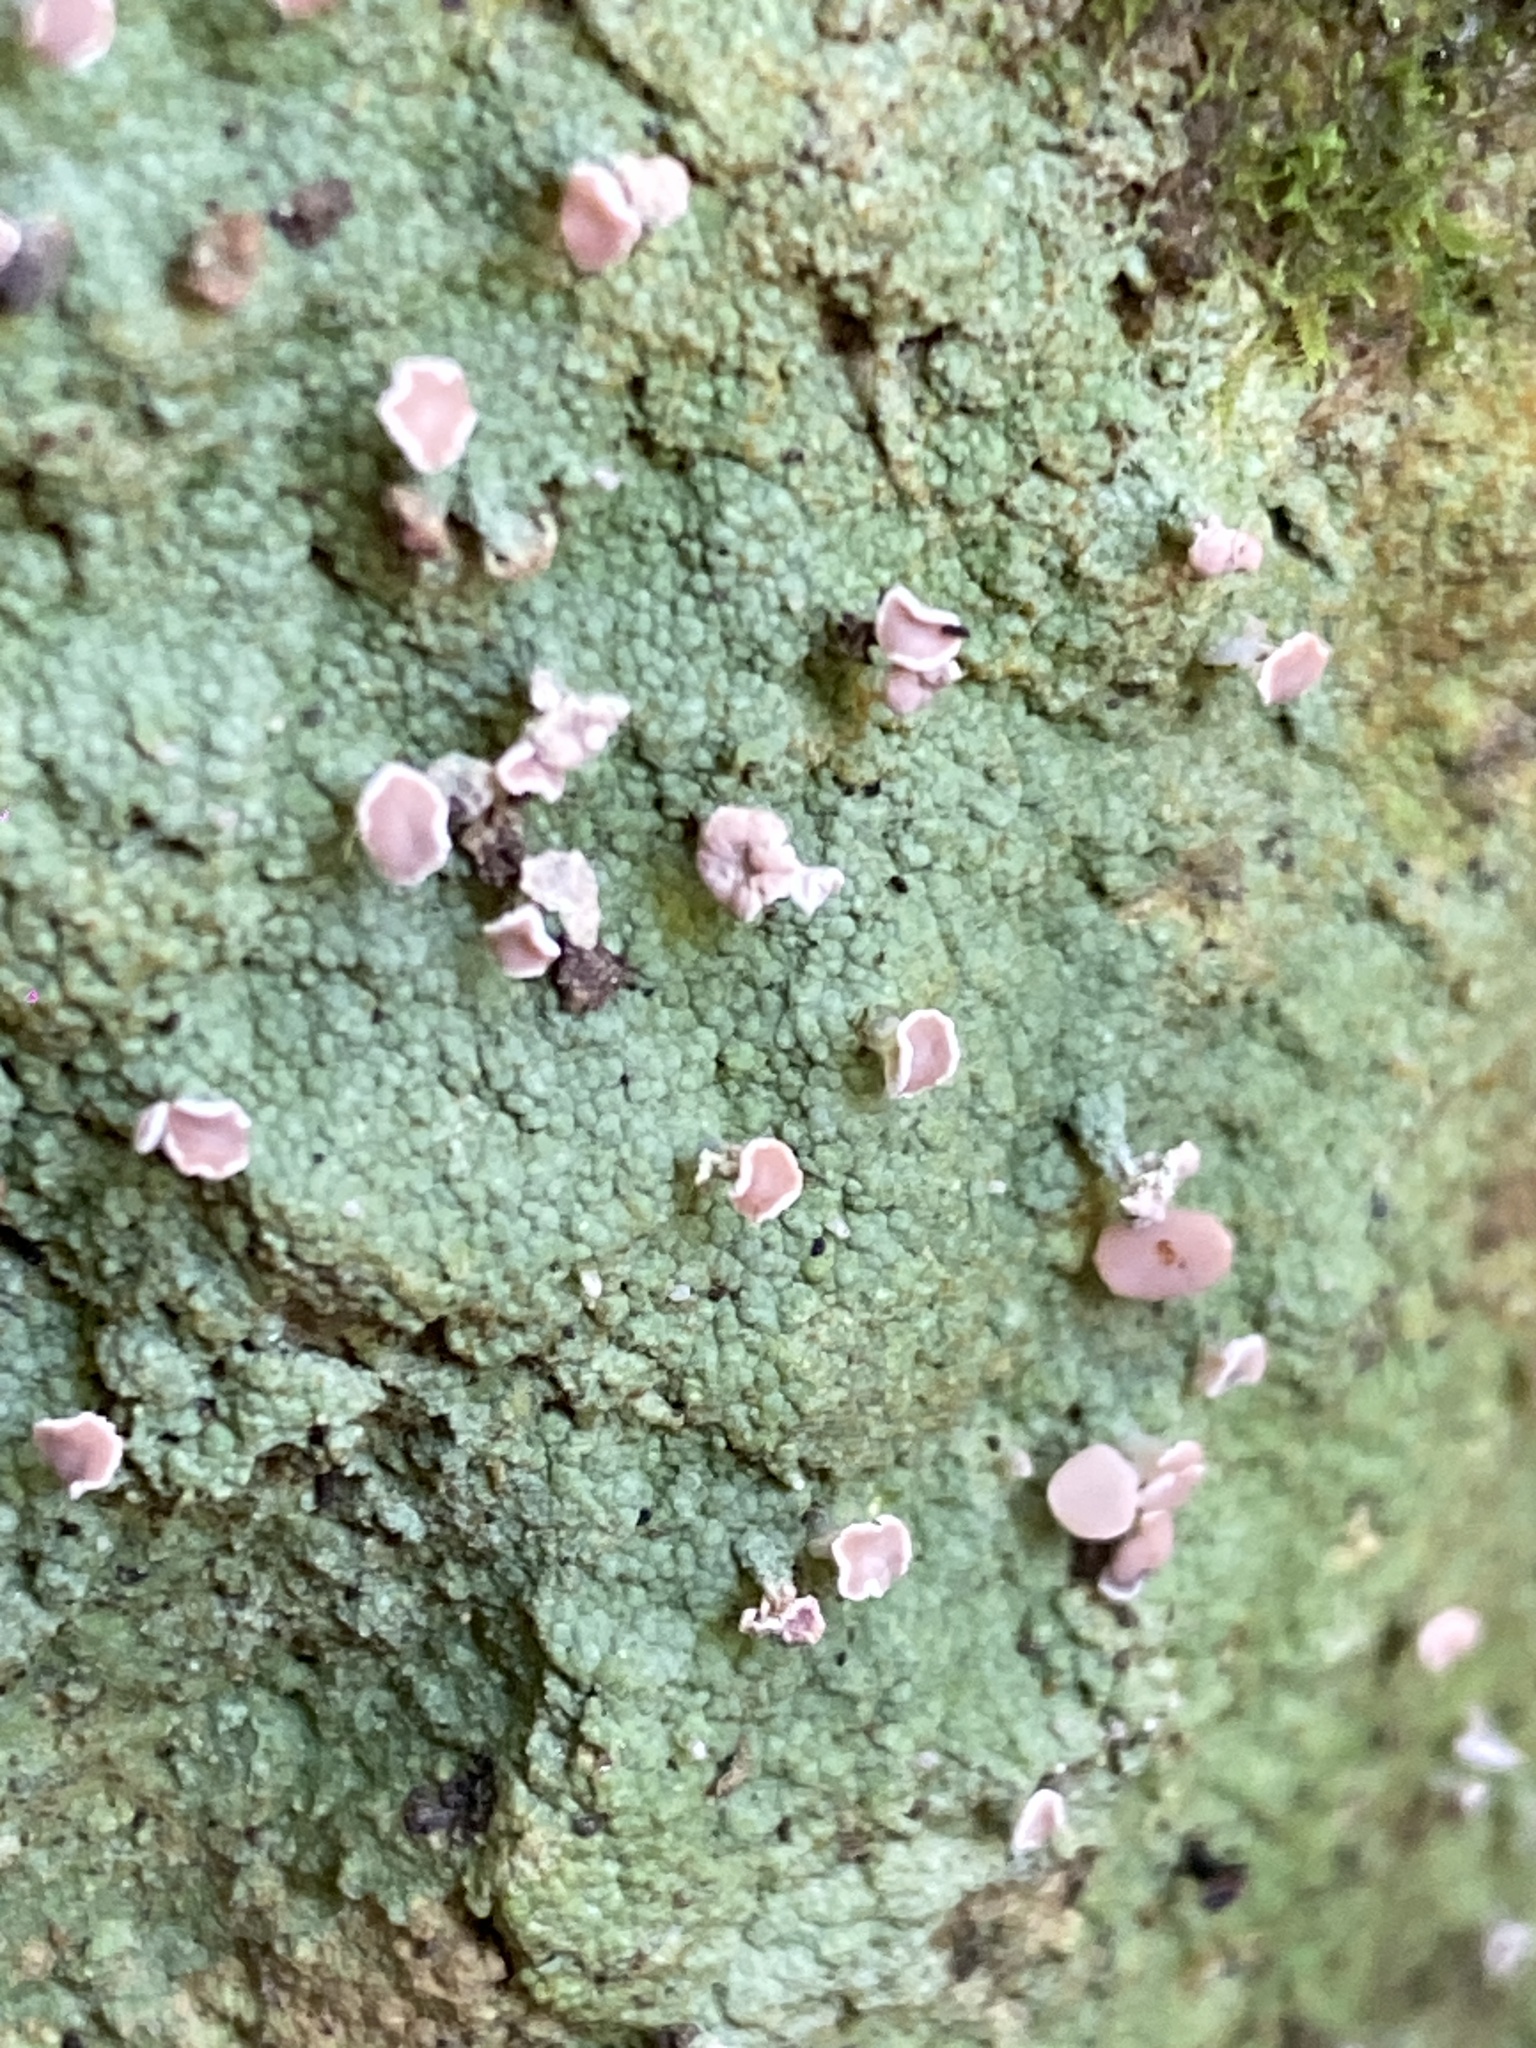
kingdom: Fungi
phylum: Ascomycota
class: Lecanoromycetes
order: Baeomycetales
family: Baeomycetaceae
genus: Baeomyces
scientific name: Baeomyces heteromorphus
